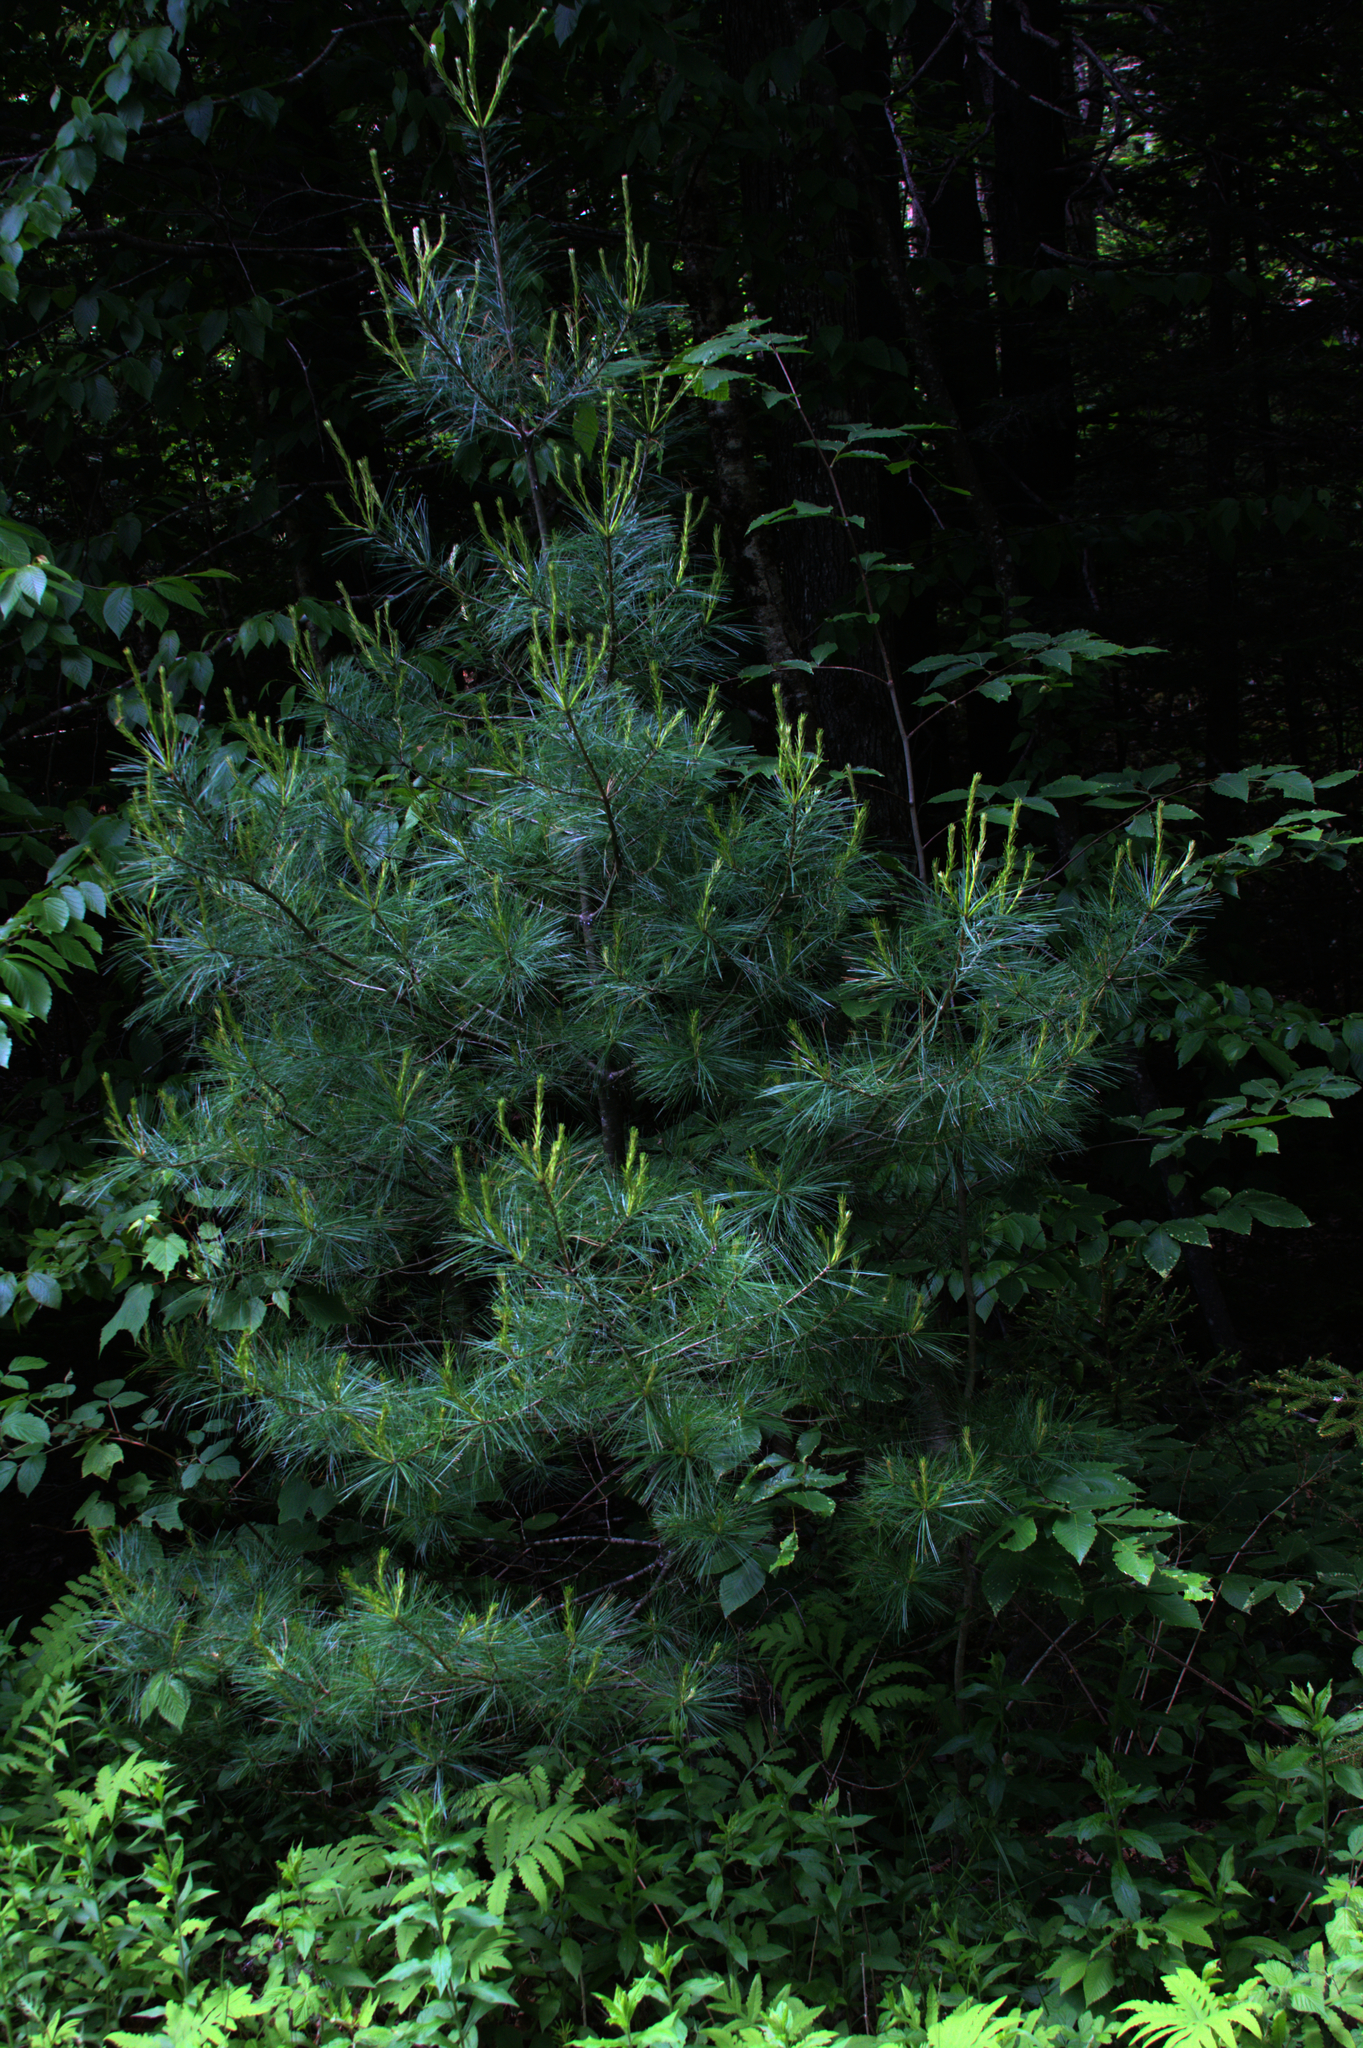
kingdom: Plantae
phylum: Tracheophyta
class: Pinopsida
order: Pinales
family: Pinaceae
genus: Pinus
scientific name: Pinus strobus
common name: Weymouth pine
